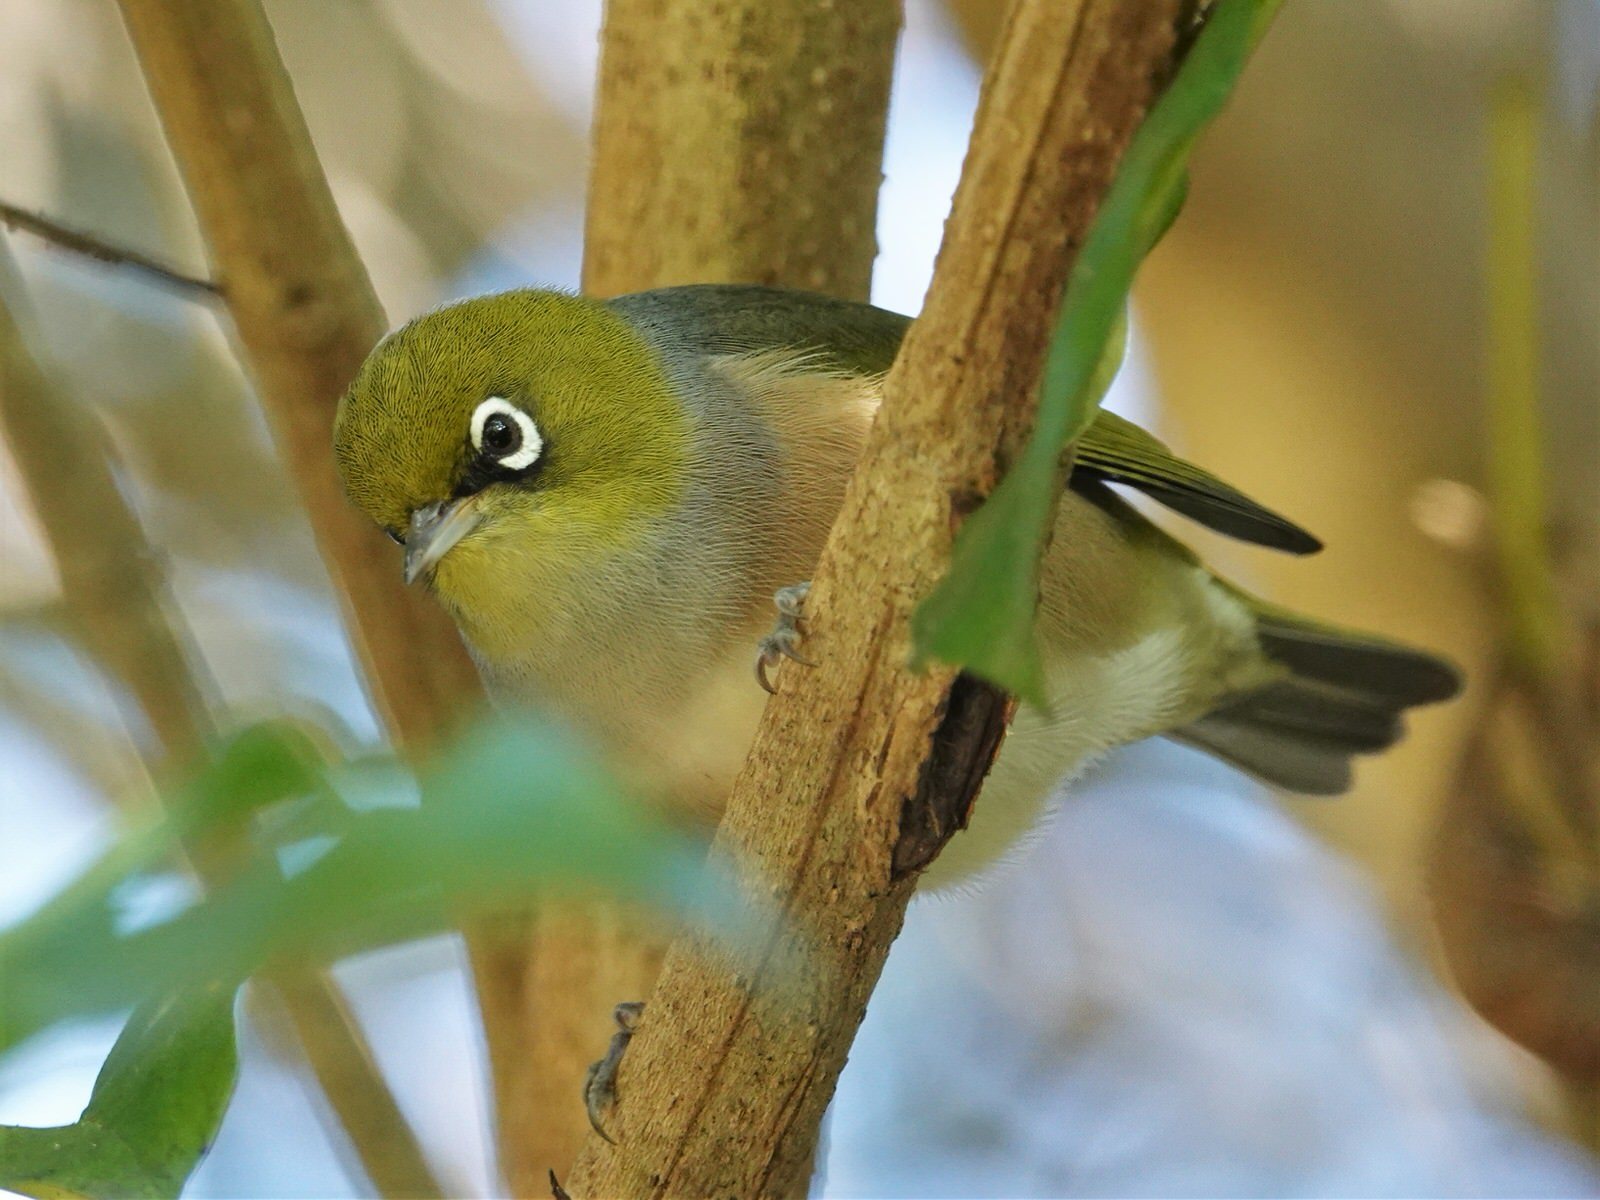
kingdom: Animalia
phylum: Chordata
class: Aves
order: Passeriformes
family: Zosteropidae
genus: Zosterops
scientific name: Zosterops lateralis
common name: Silvereye
